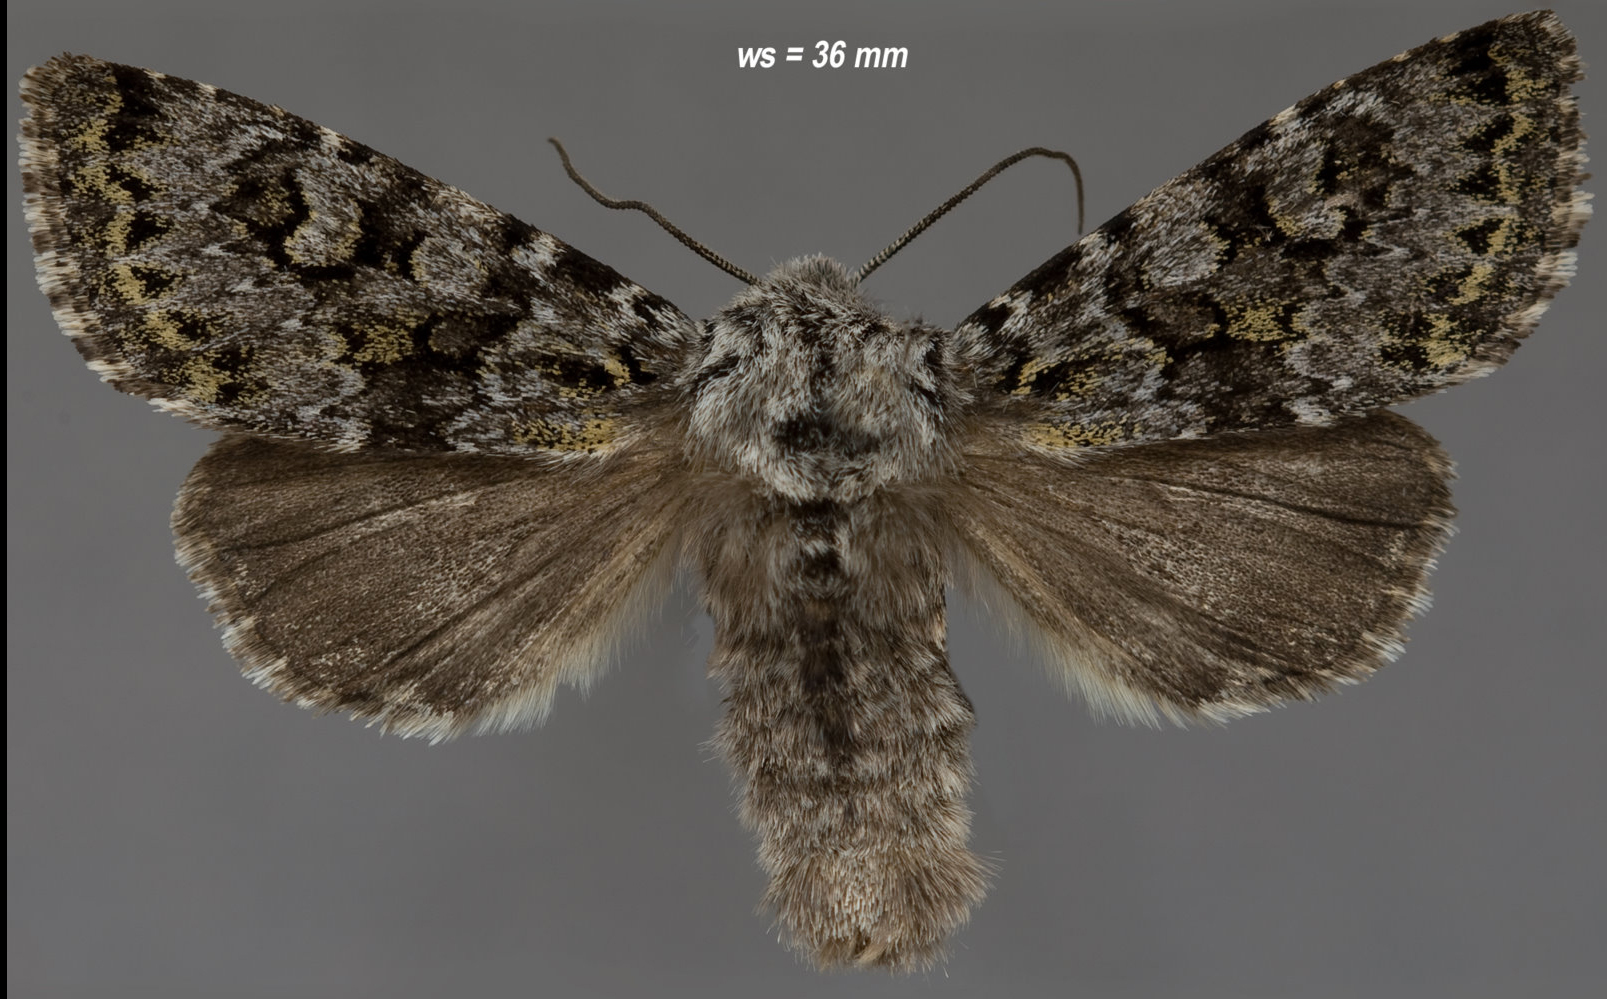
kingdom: Animalia
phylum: Arthropoda
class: Insecta
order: Lepidoptera
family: Noctuidae
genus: Lasionycta
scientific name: Lasionycta mutilata
